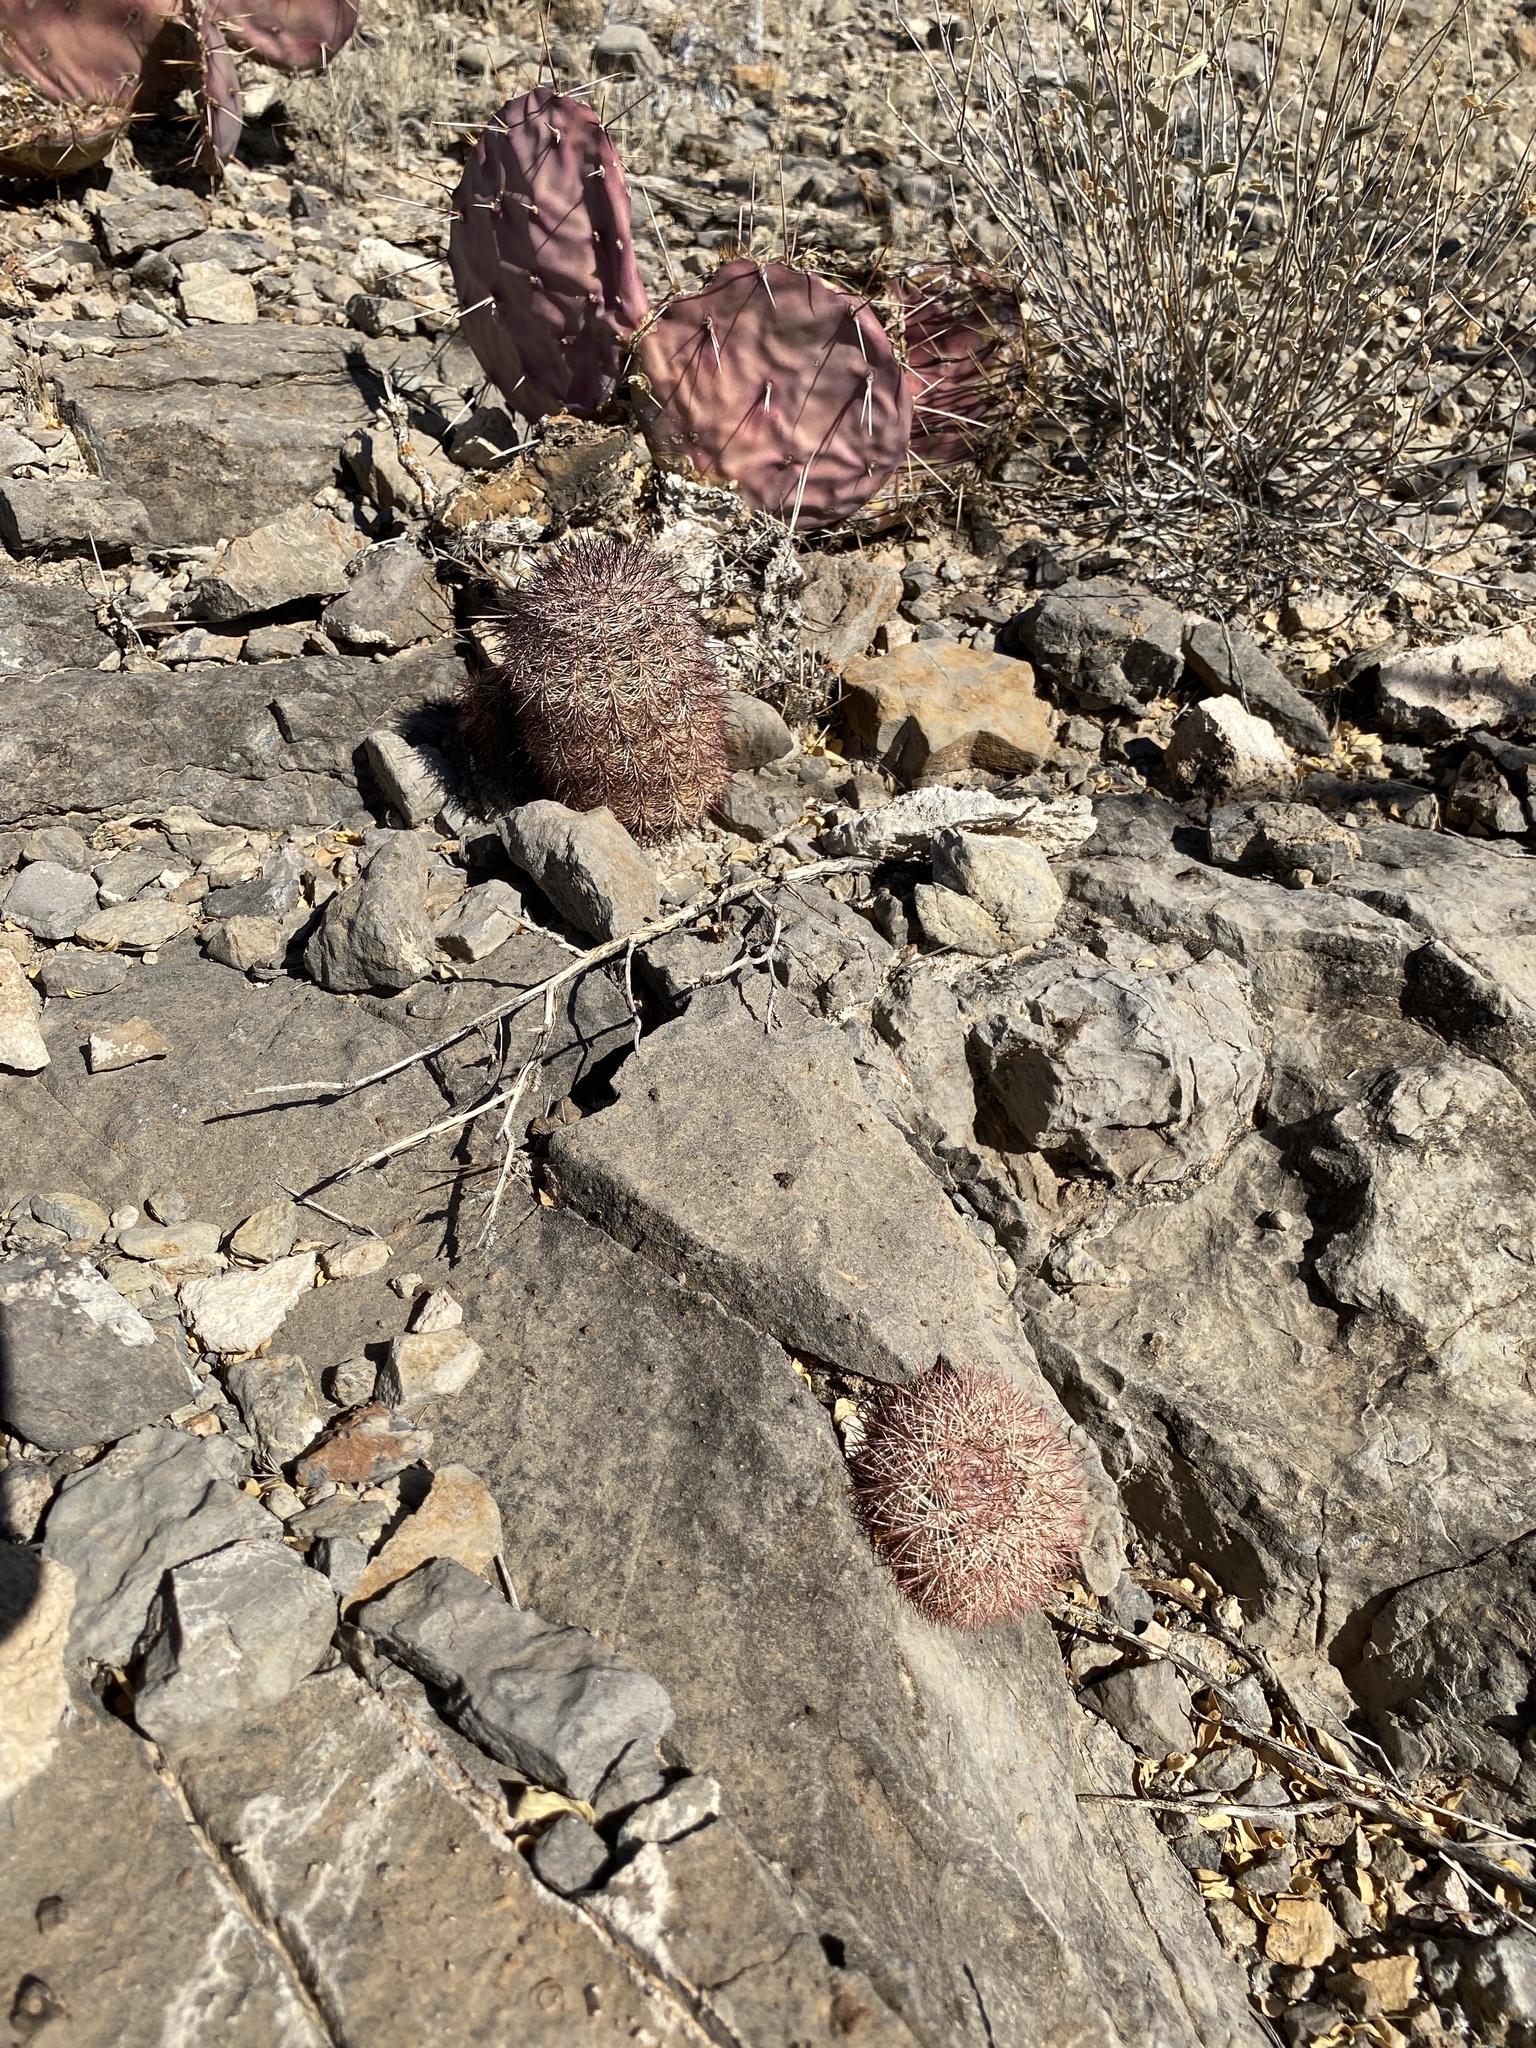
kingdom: Plantae
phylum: Tracheophyta
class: Magnoliopsida
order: Caryophyllales
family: Cactaceae
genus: Echinocereus
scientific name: Echinocereus dasyacanthus
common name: Spiny hedgehog cactus
